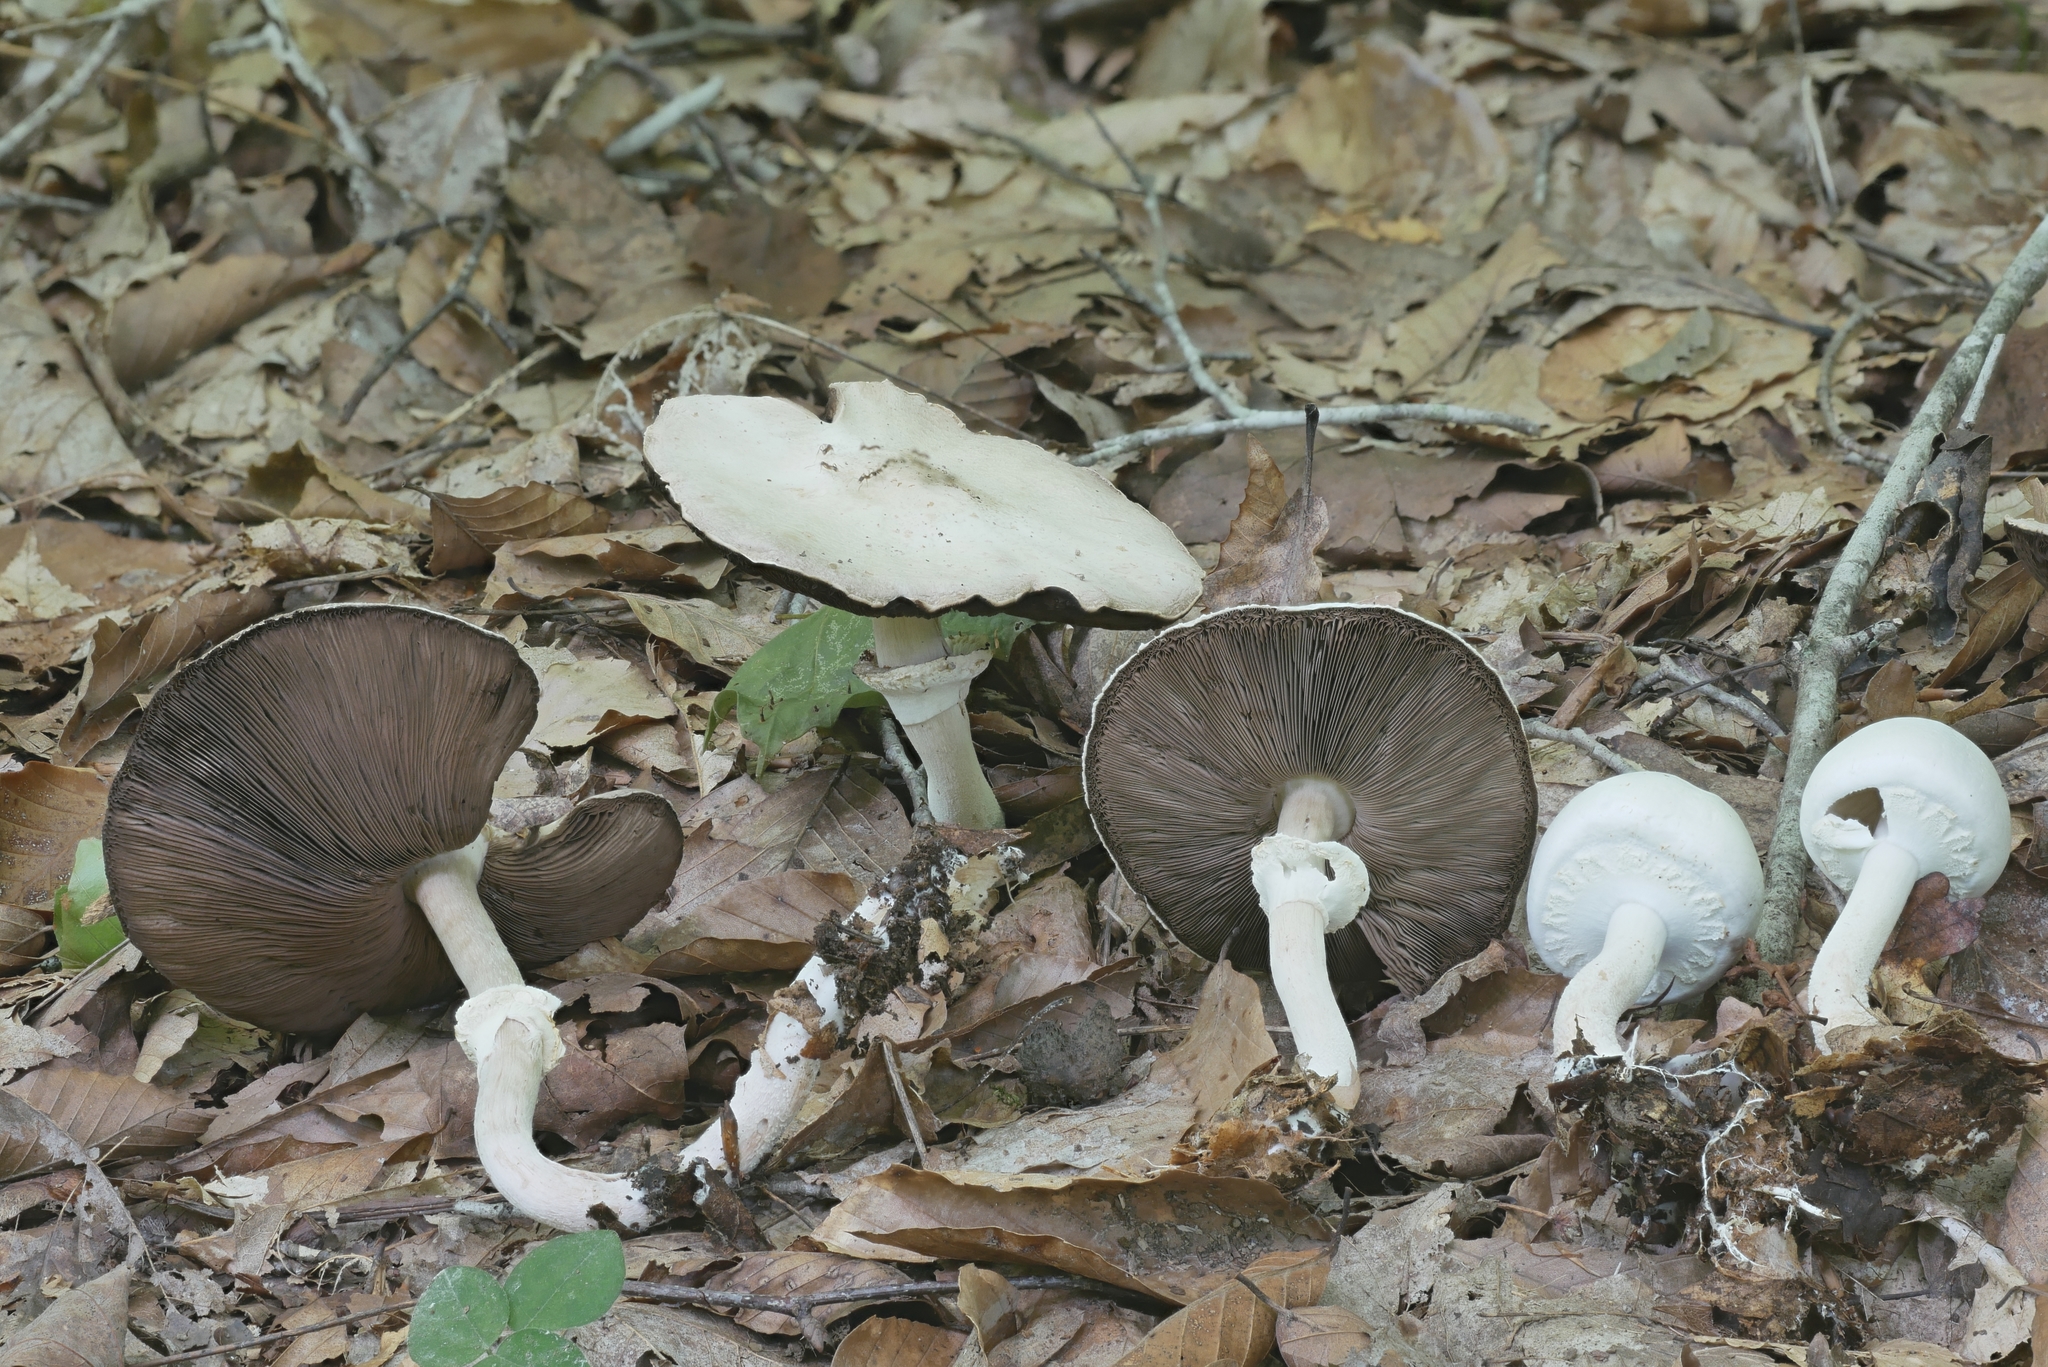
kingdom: Fungi
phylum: Basidiomycota
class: Agaricomycetes
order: Agaricales
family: Agaricaceae
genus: Agaricus
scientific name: Agaricus butyreburneus
